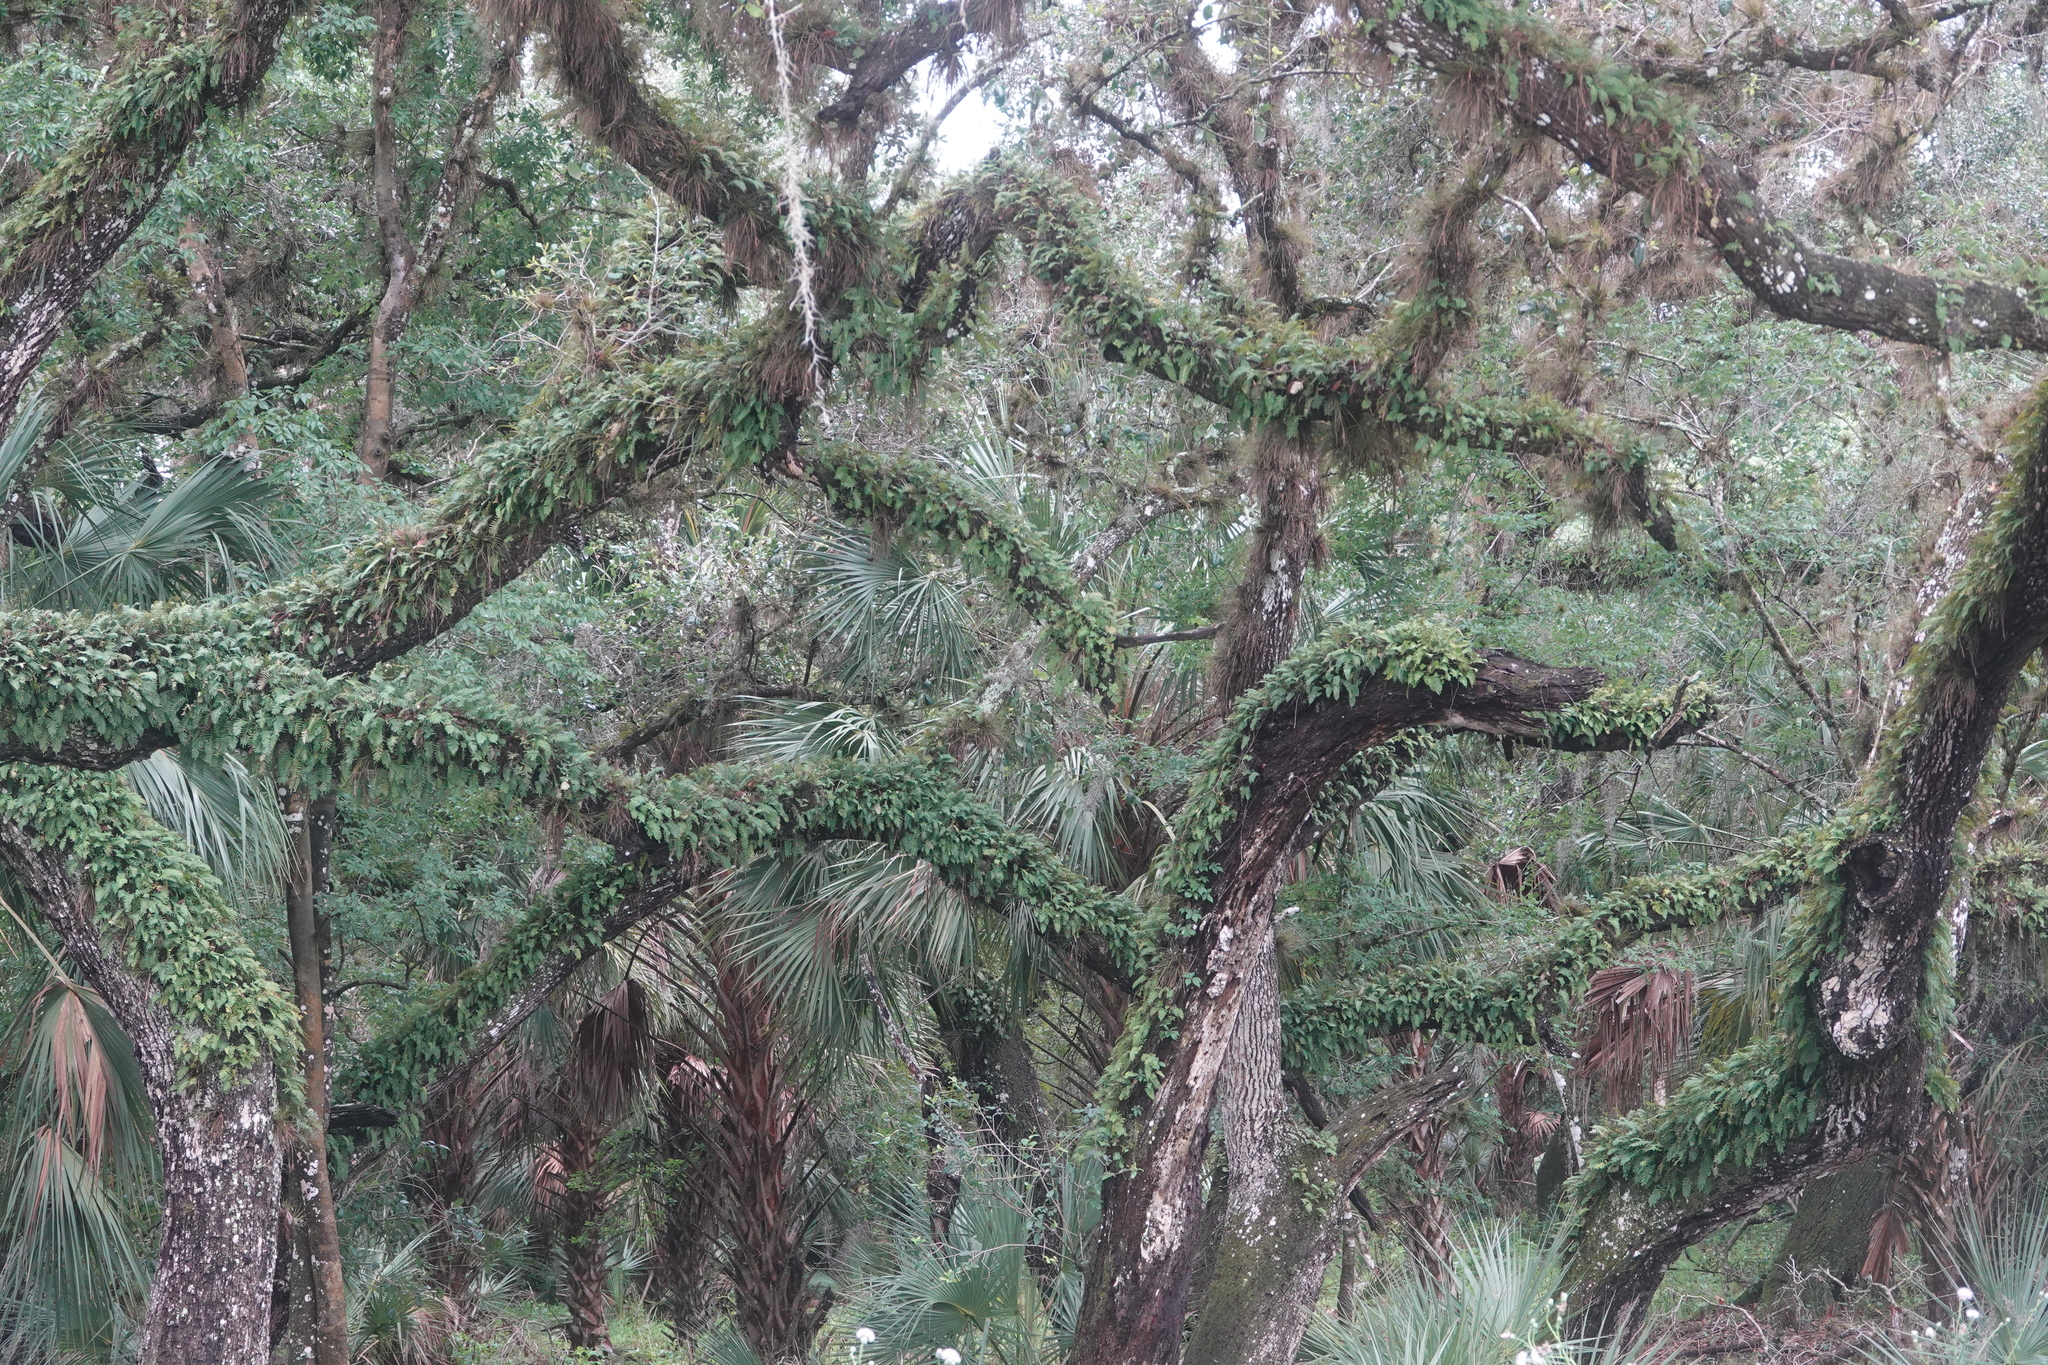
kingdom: Plantae
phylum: Tracheophyta
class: Polypodiopsida
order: Polypodiales
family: Polypodiaceae
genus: Pleopeltis
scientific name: Pleopeltis michauxiana
